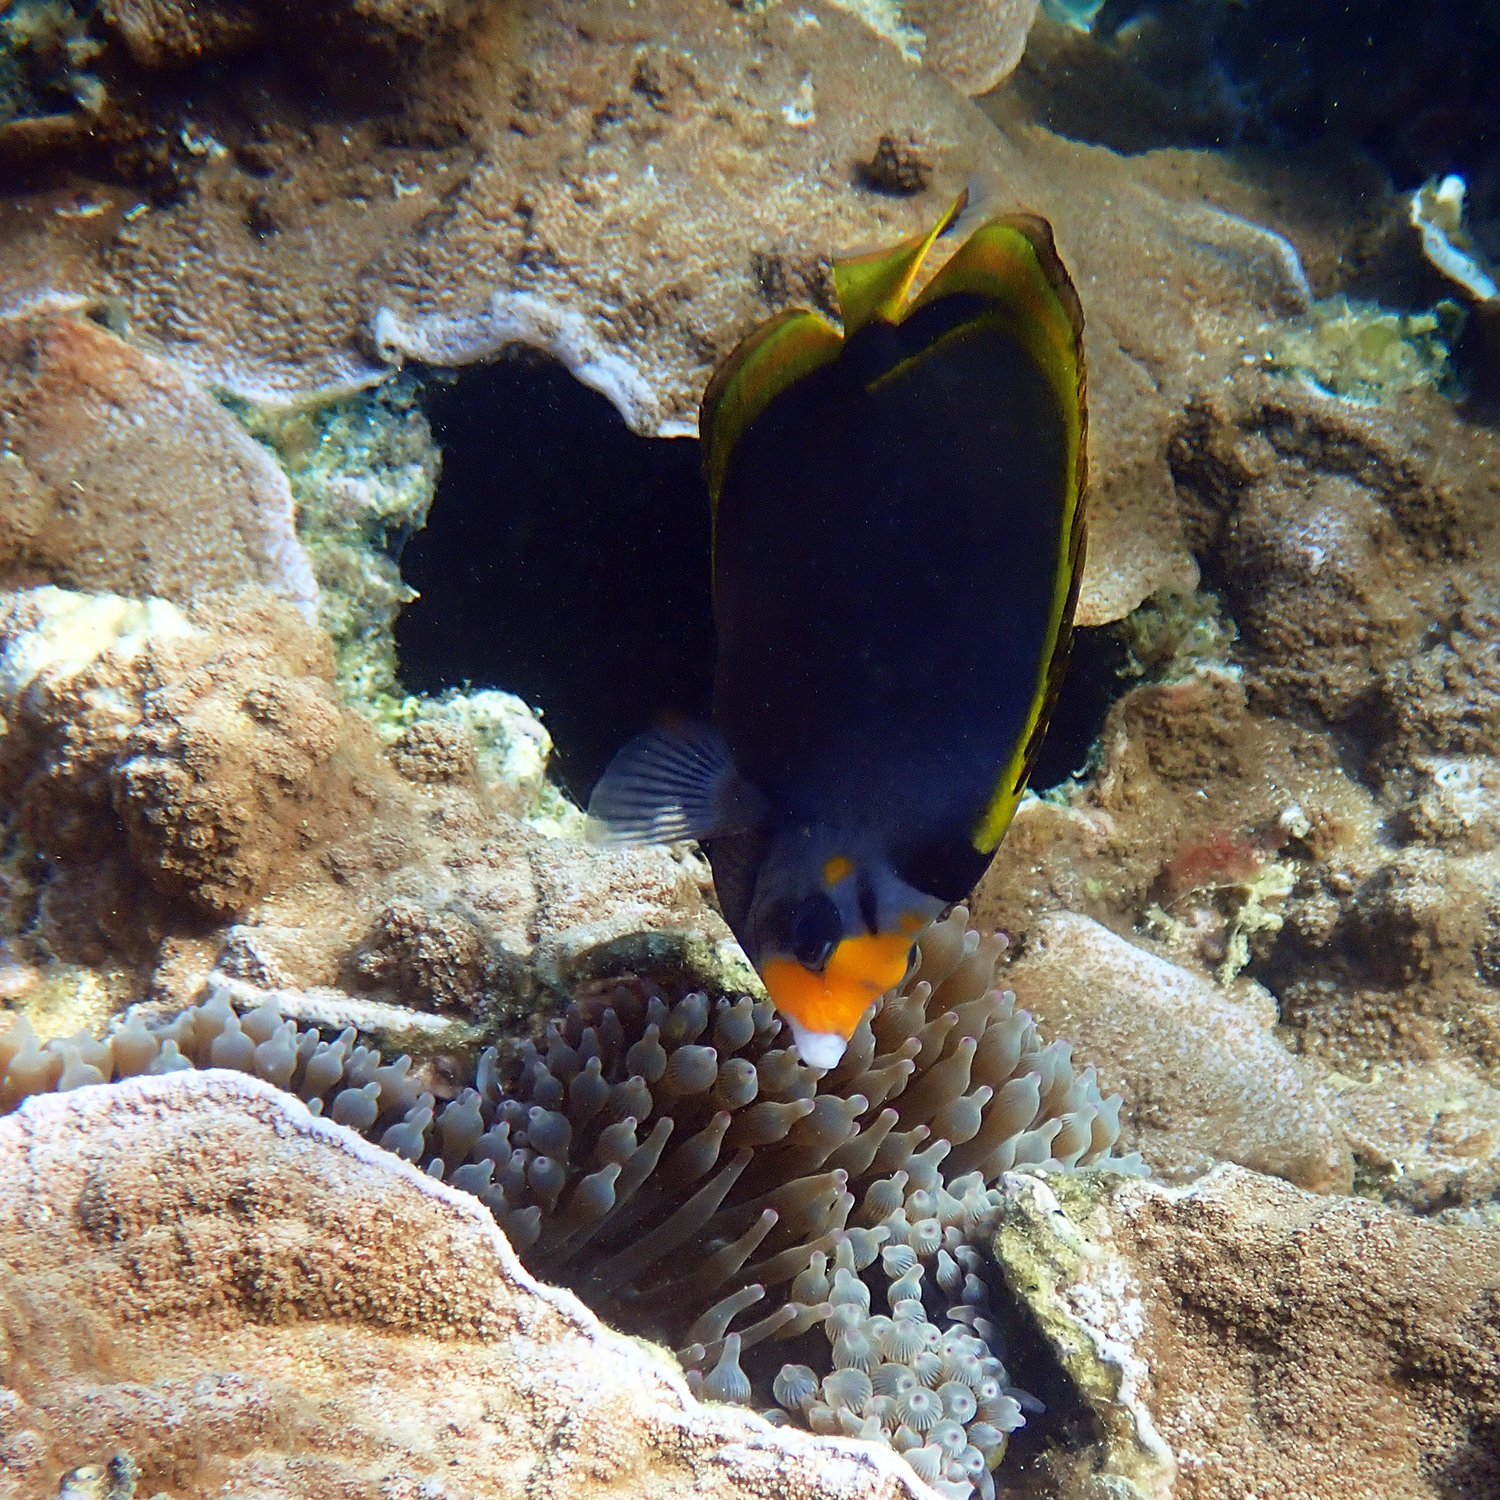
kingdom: Animalia
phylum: Chordata
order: Perciformes
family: Chaetodontidae
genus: Chaetodon
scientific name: Chaetodon flavirostris
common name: Black butterflyfish
